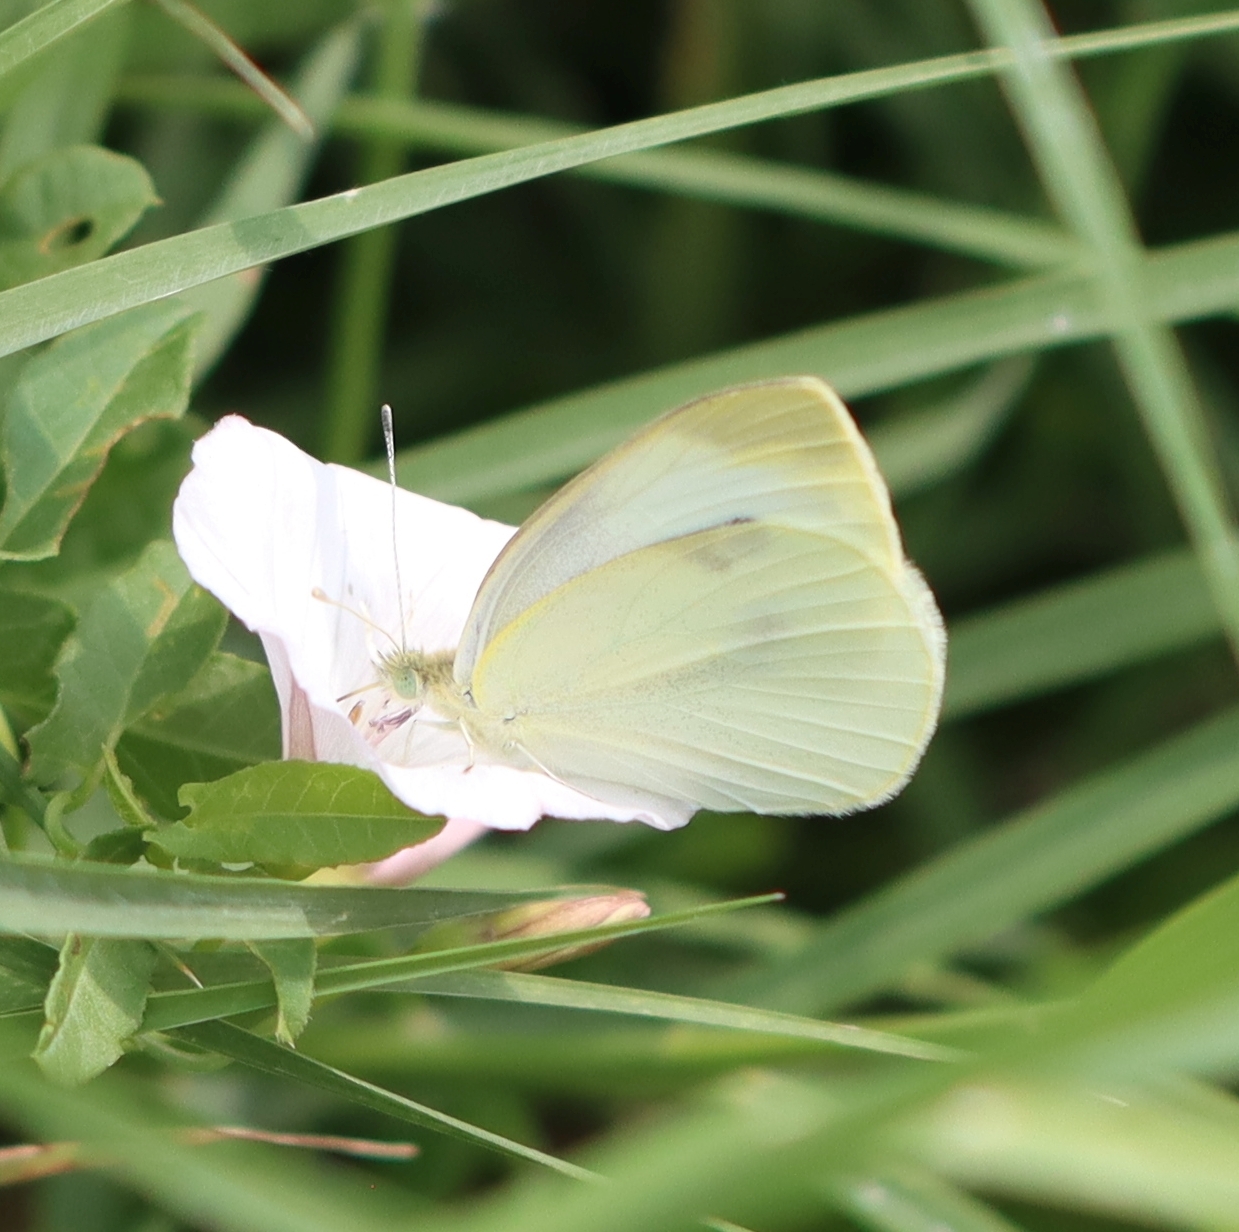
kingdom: Animalia
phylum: Arthropoda
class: Insecta
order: Lepidoptera
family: Pieridae
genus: Pieris
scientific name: Pieris rapae
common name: Small white
